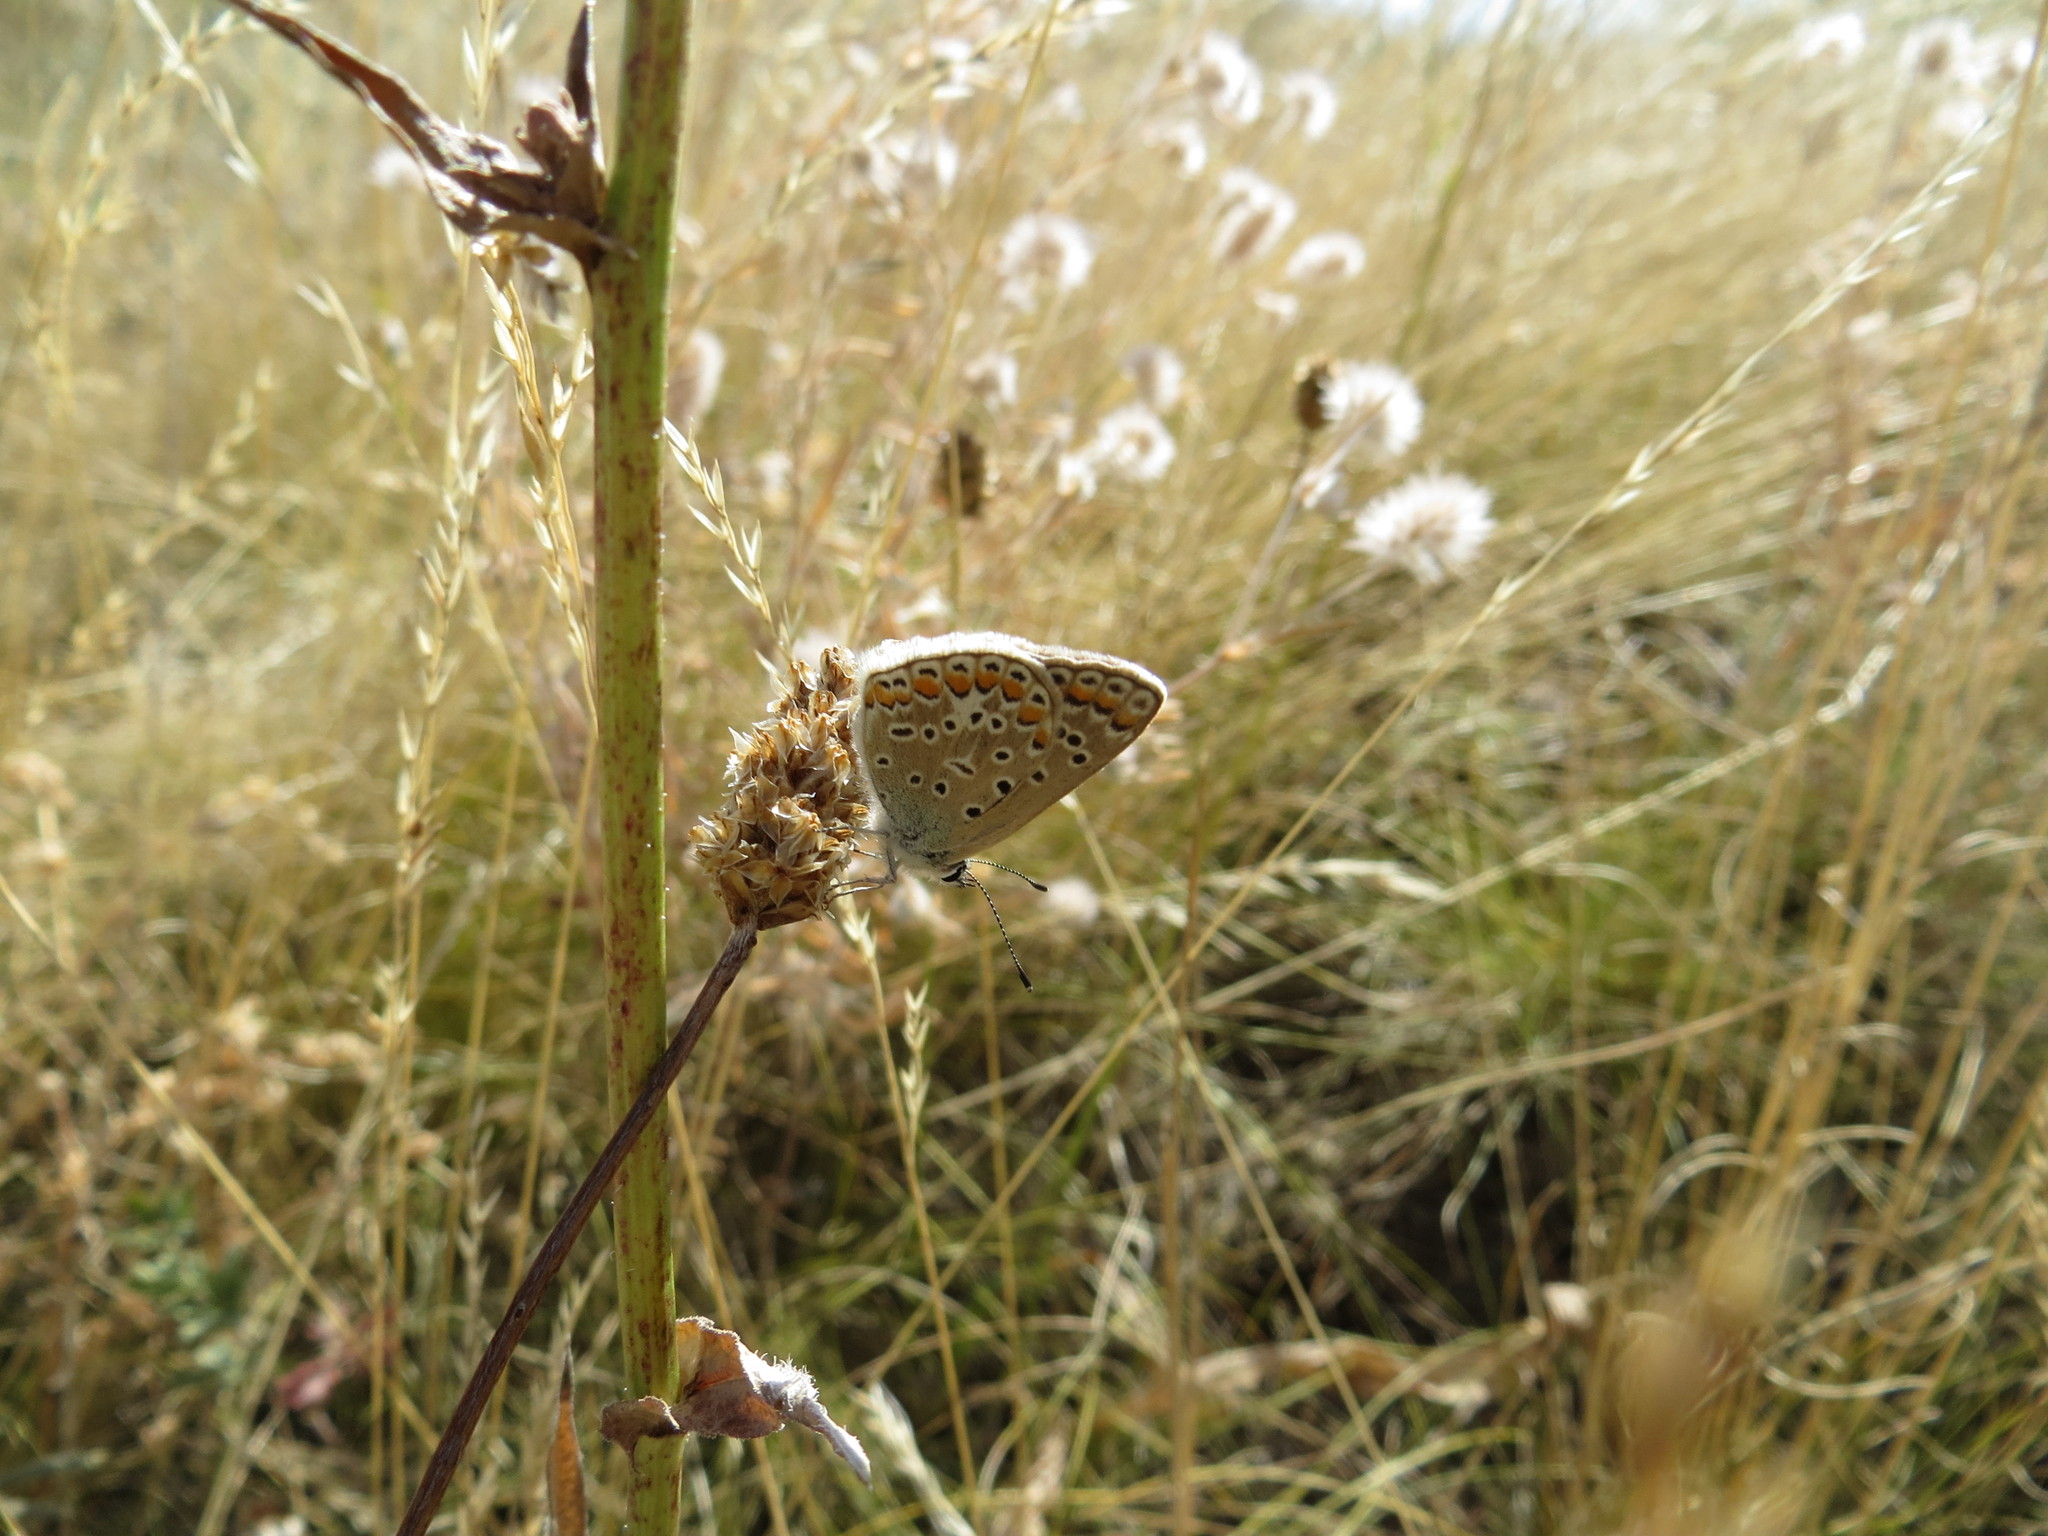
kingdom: Animalia
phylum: Arthropoda
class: Insecta
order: Lepidoptera
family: Lycaenidae
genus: Polyommatus
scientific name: Polyommatus icarus
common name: Common blue
